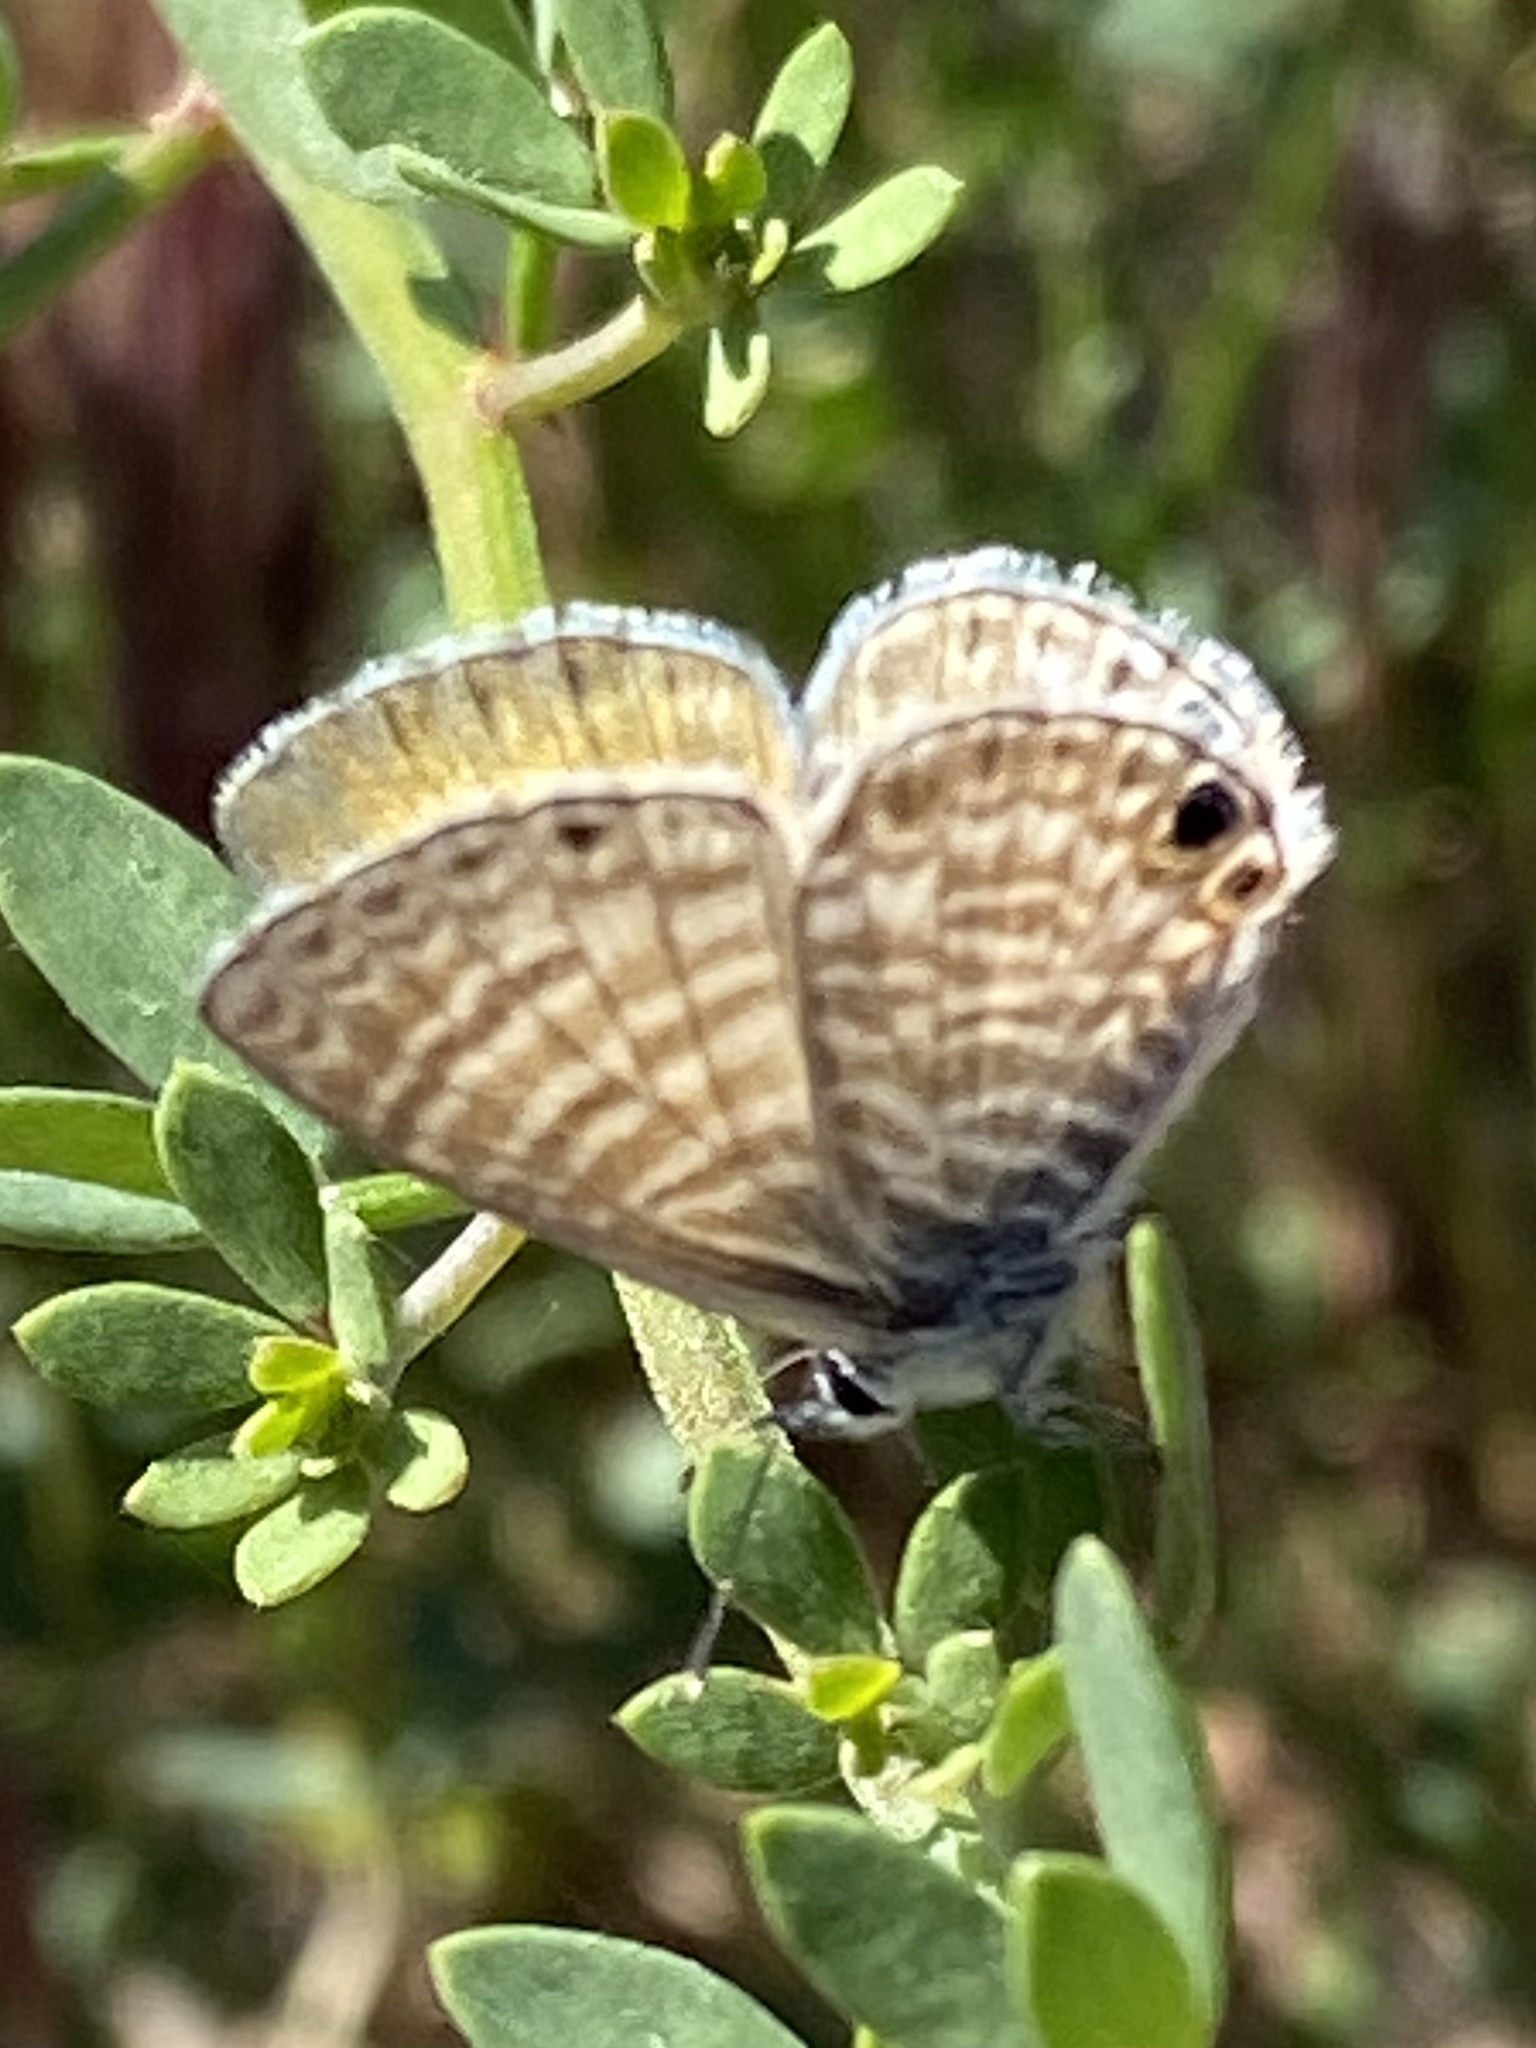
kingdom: Animalia
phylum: Arthropoda
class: Insecta
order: Lepidoptera
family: Lycaenidae
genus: Leptotes
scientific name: Leptotes marina
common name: Marine blue
